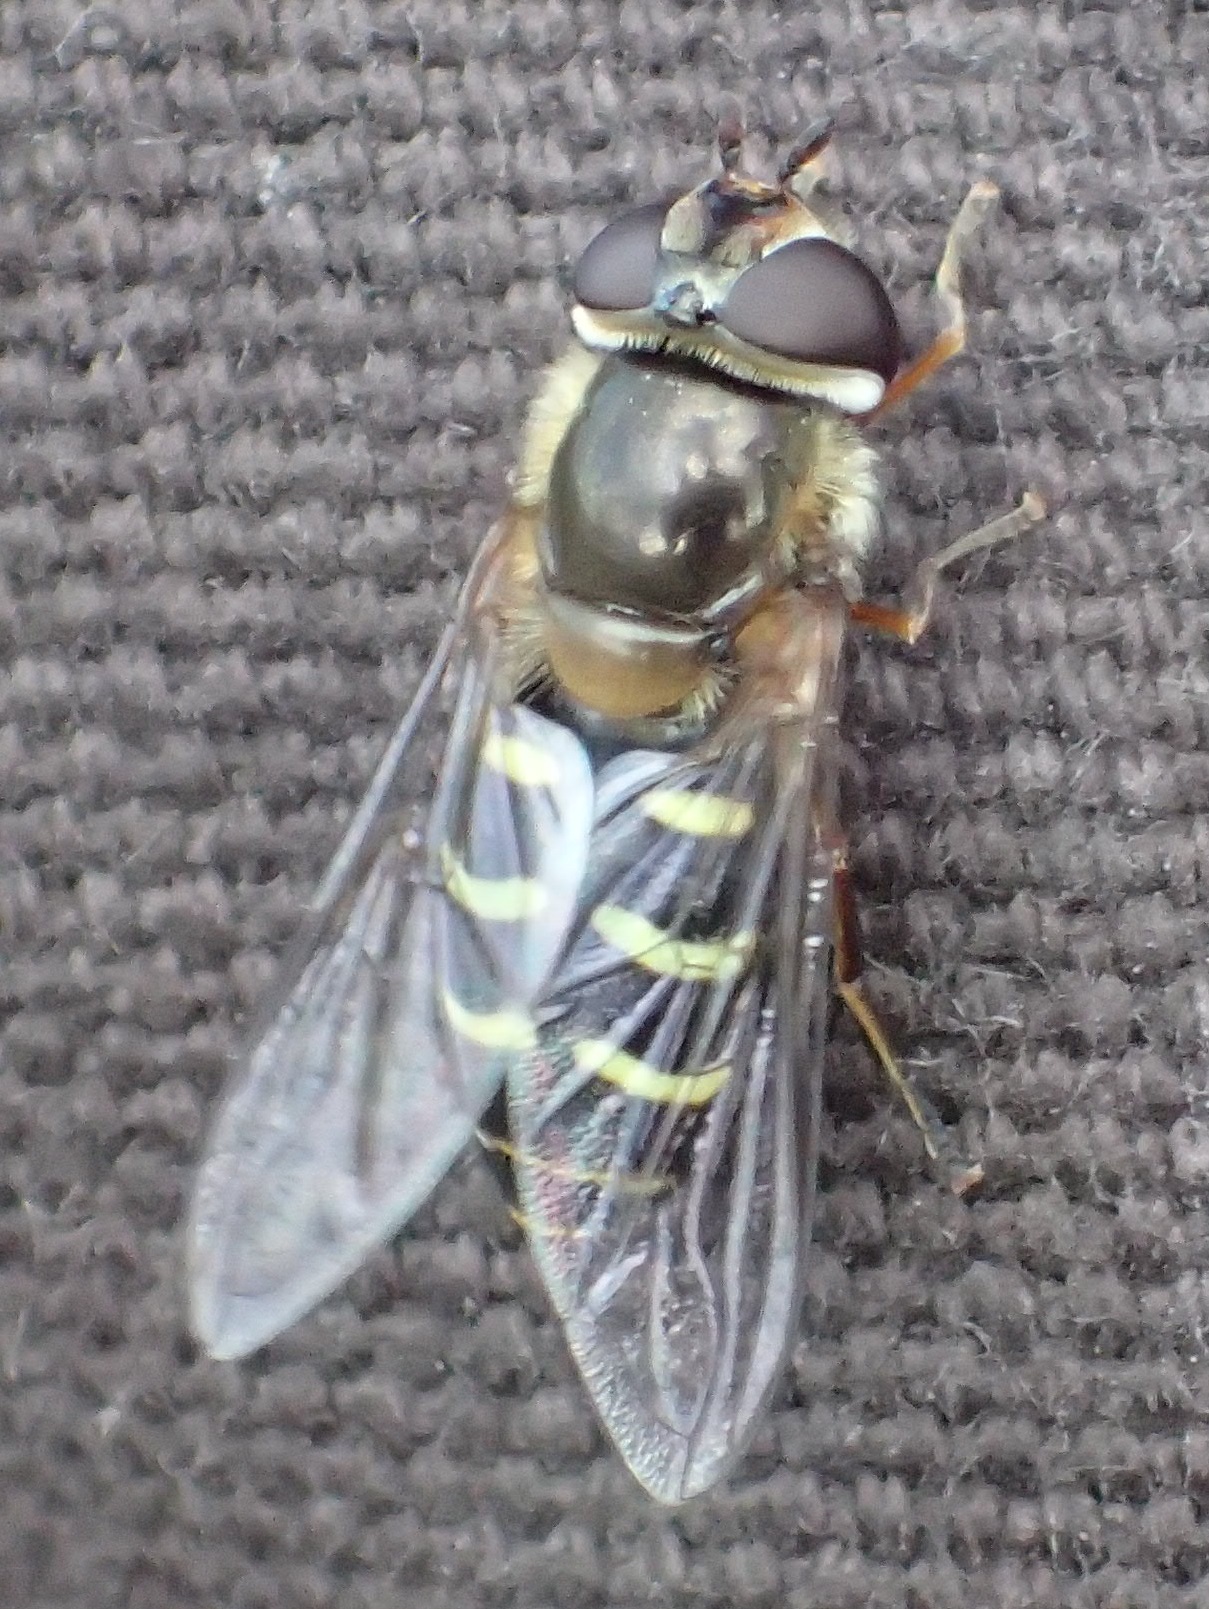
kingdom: Animalia
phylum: Arthropoda
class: Insecta
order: Diptera
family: Syrphidae
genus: Lapposyrphus
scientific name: Lapposyrphus lapponicus
